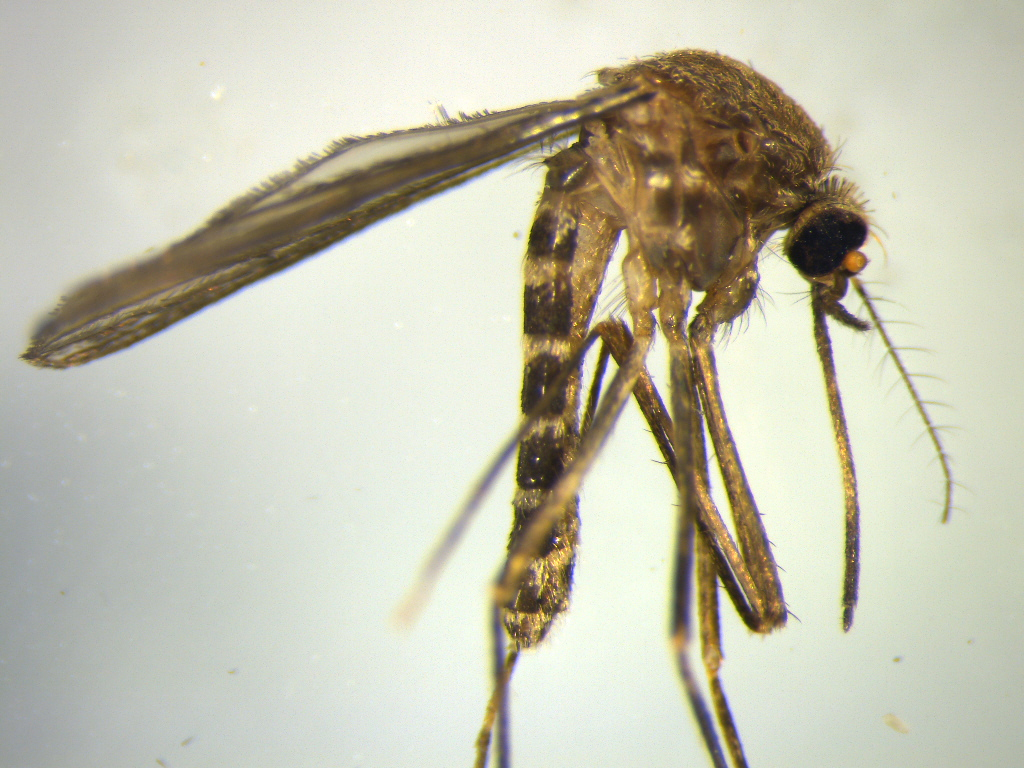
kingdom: Animalia
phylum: Arthropoda
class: Insecta
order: Diptera
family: Culicidae
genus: Culex
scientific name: Culex pervigilans
